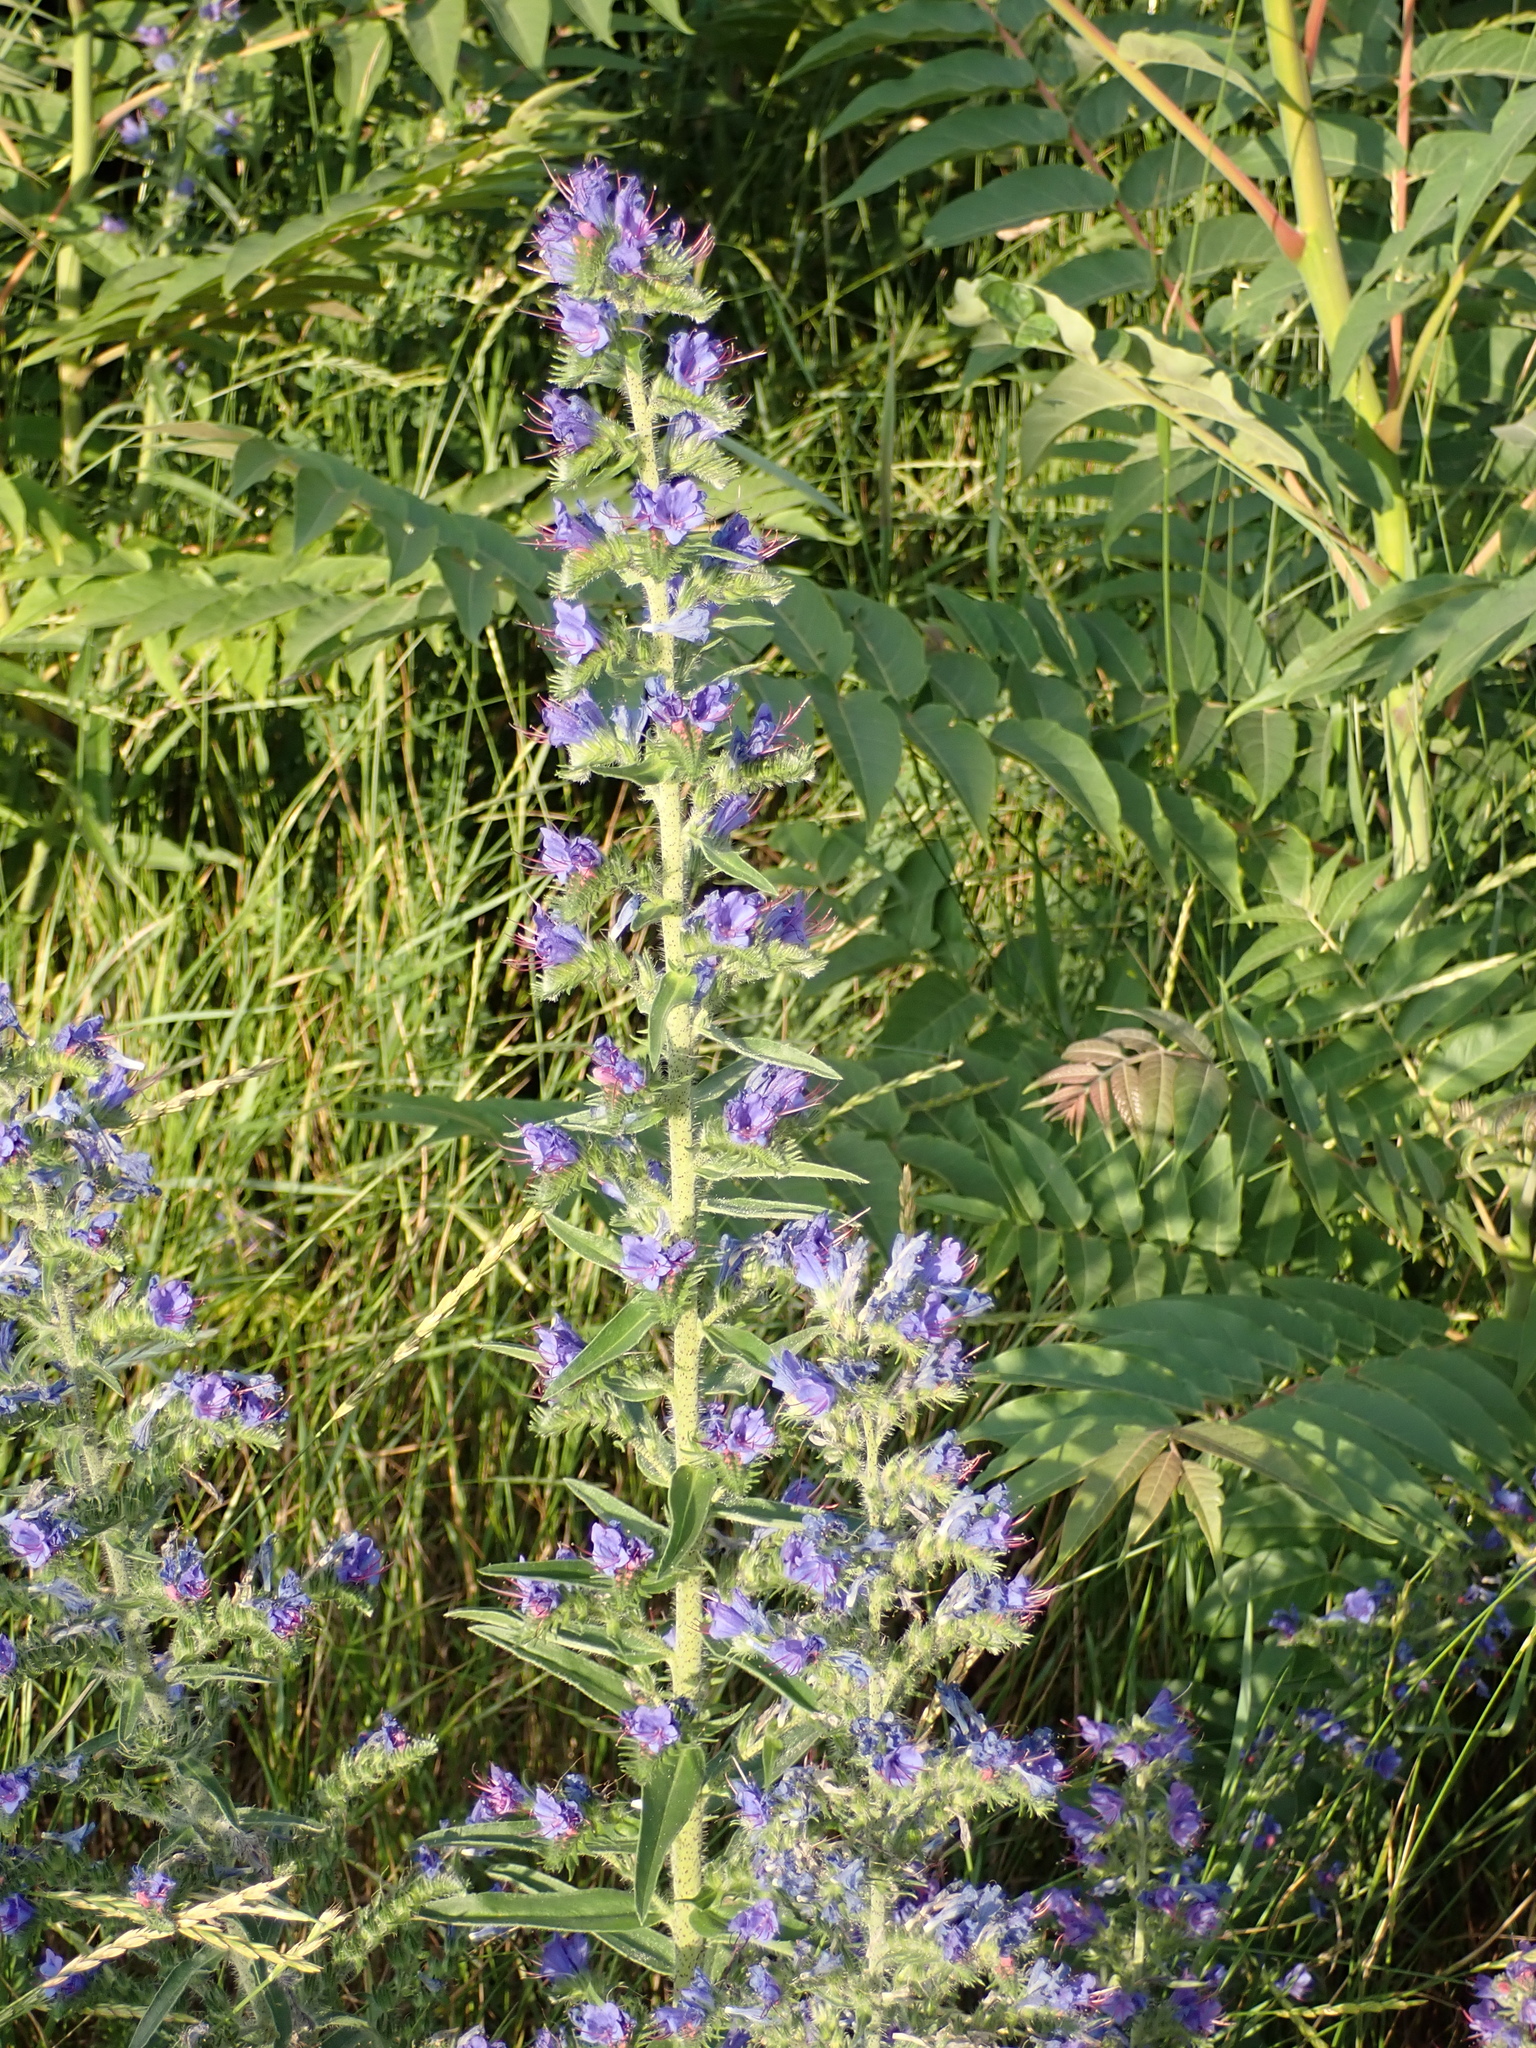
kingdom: Plantae
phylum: Tracheophyta
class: Magnoliopsida
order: Boraginales
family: Boraginaceae
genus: Echium
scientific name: Echium vulgare
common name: Common viper's bugloss
